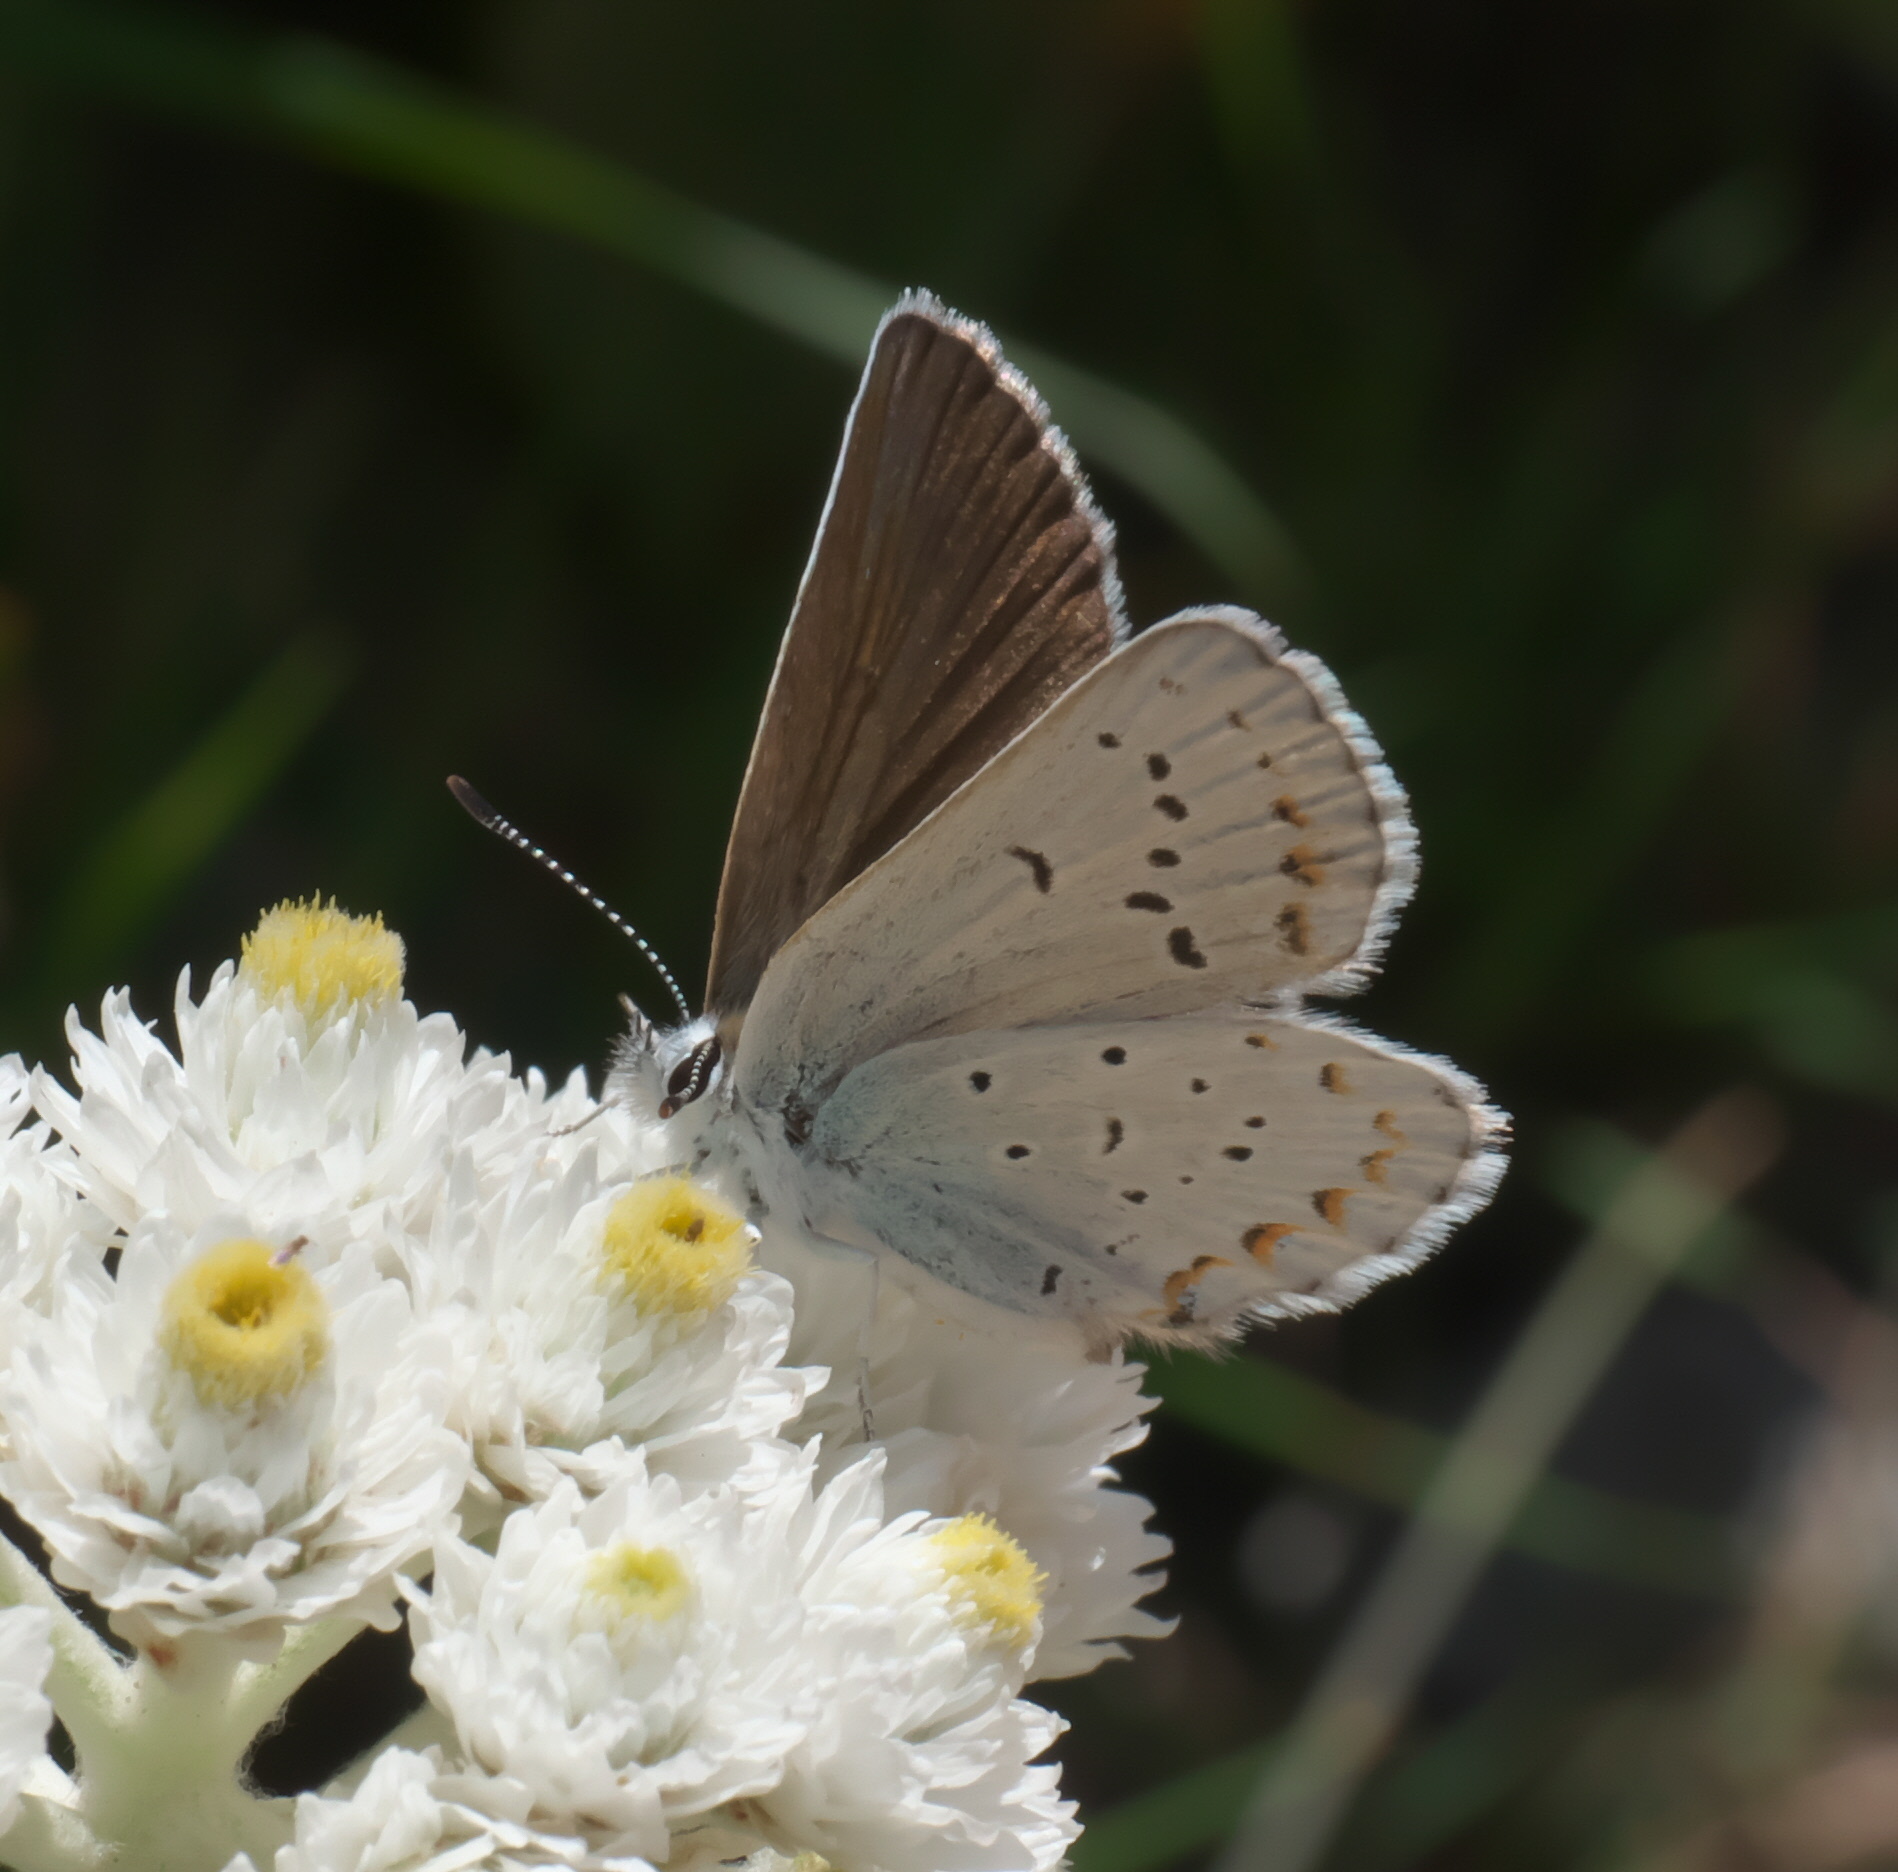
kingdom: Animalia
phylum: Arthropoda
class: Insecta
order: Lepidoptera
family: Lycaenidae
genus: Lycaeides
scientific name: Lycaeides anna
